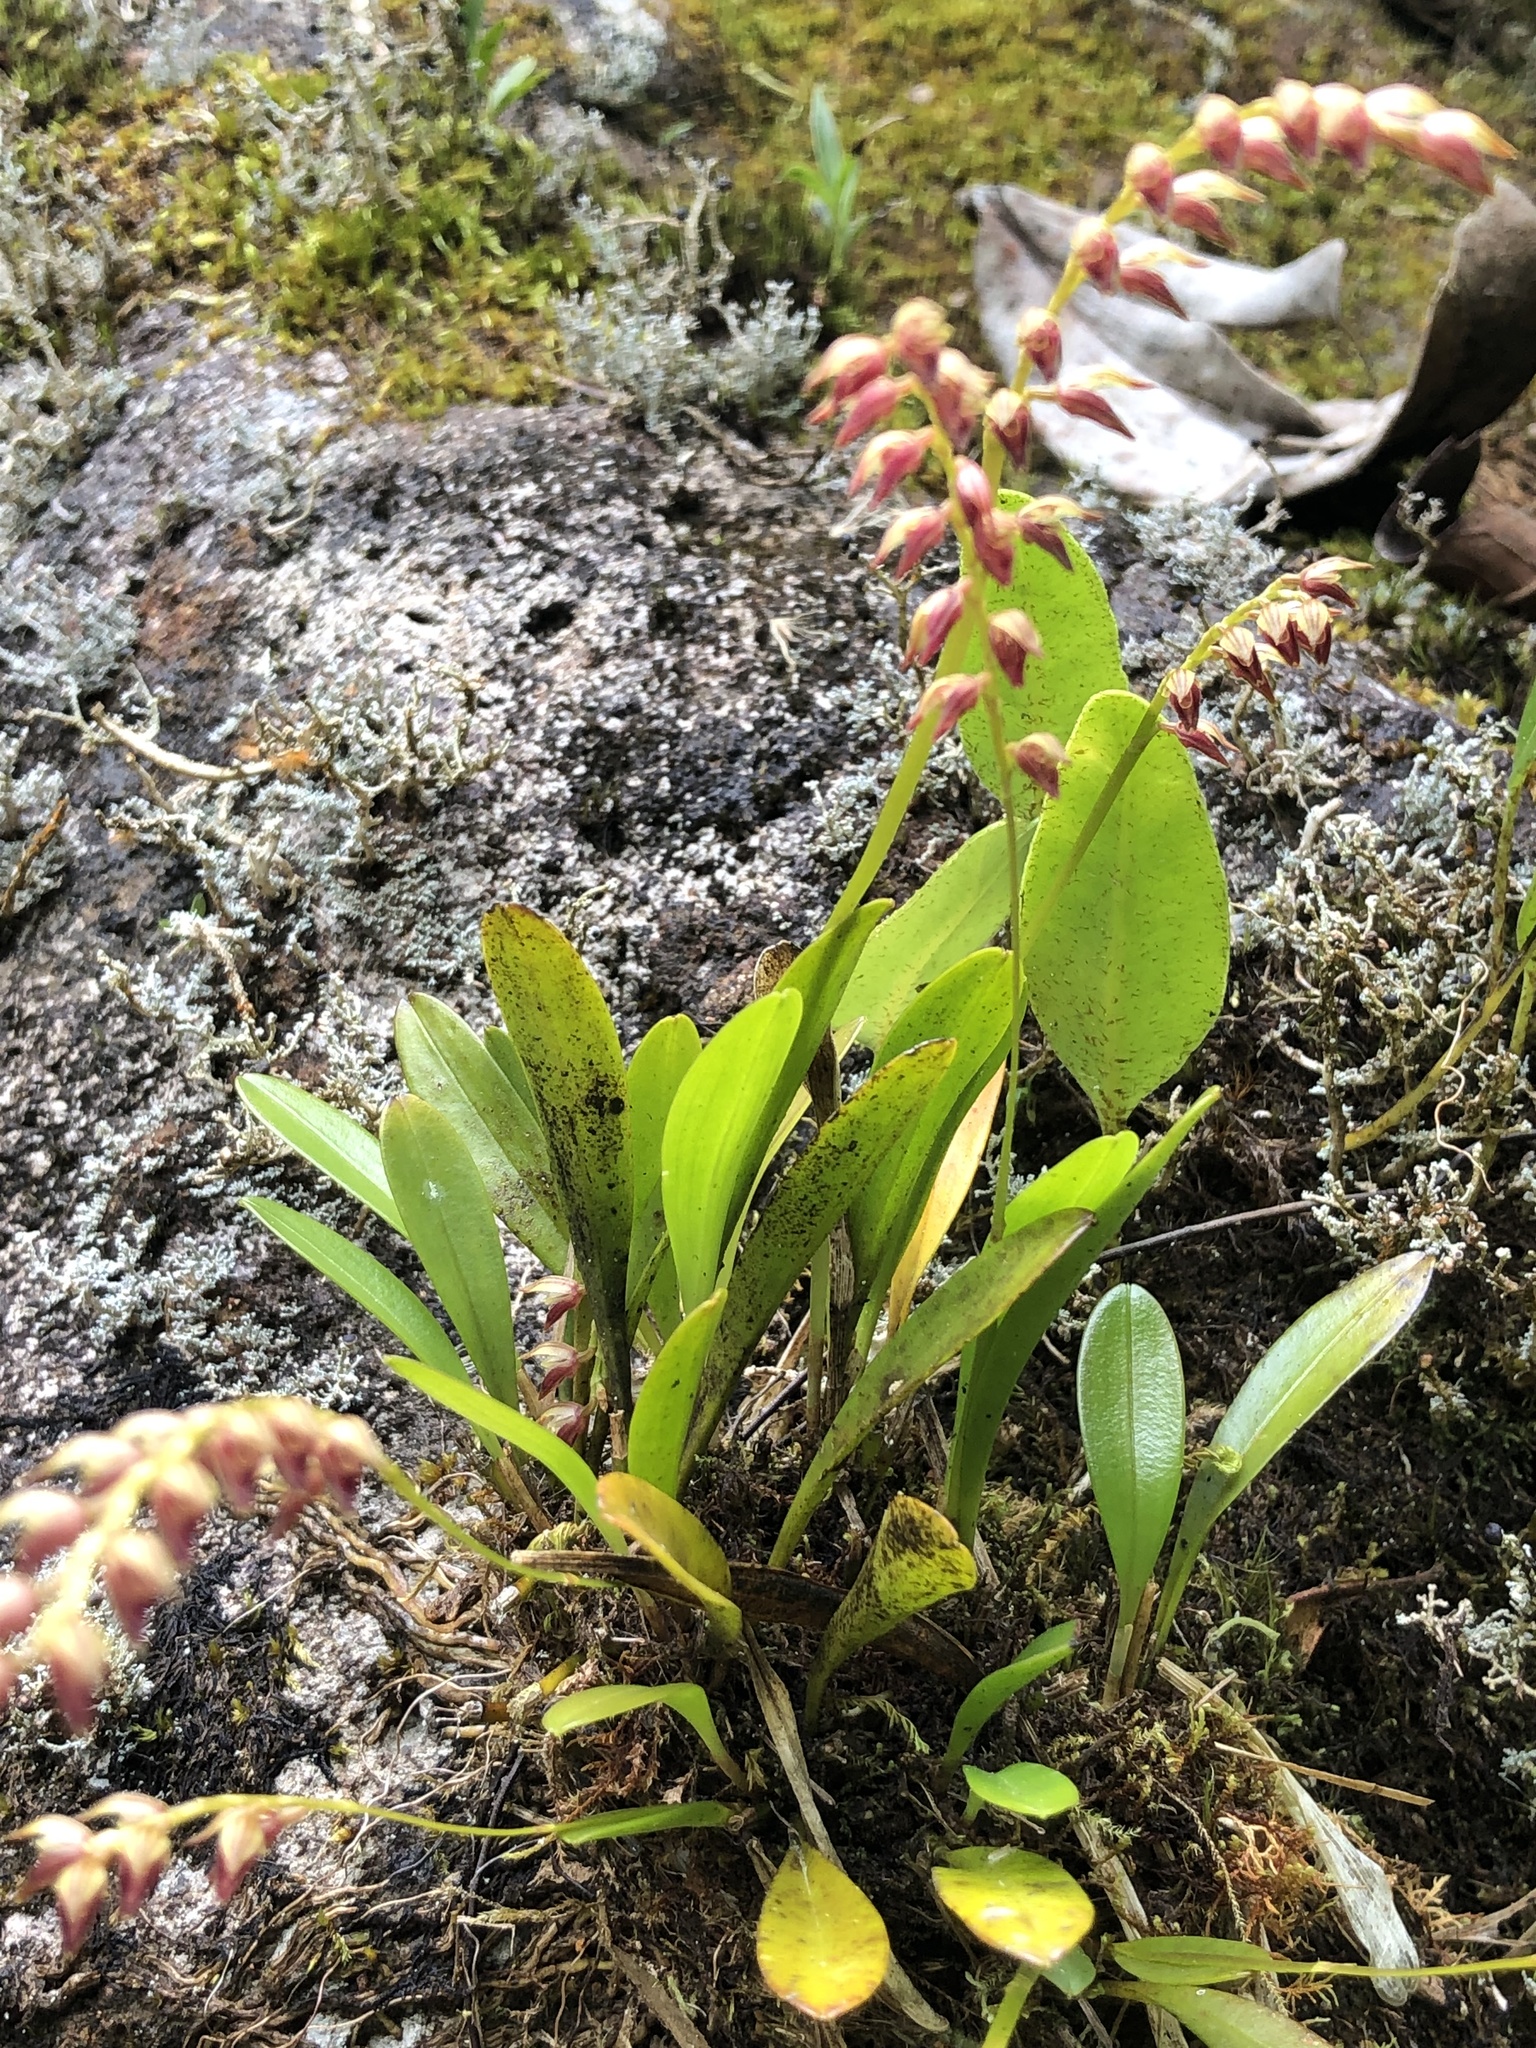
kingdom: Plantae
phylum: Tracheophyta
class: Liliopsida
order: Asparagales
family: Orchidaceae
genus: Specklinia
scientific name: Specklinia gracillima
